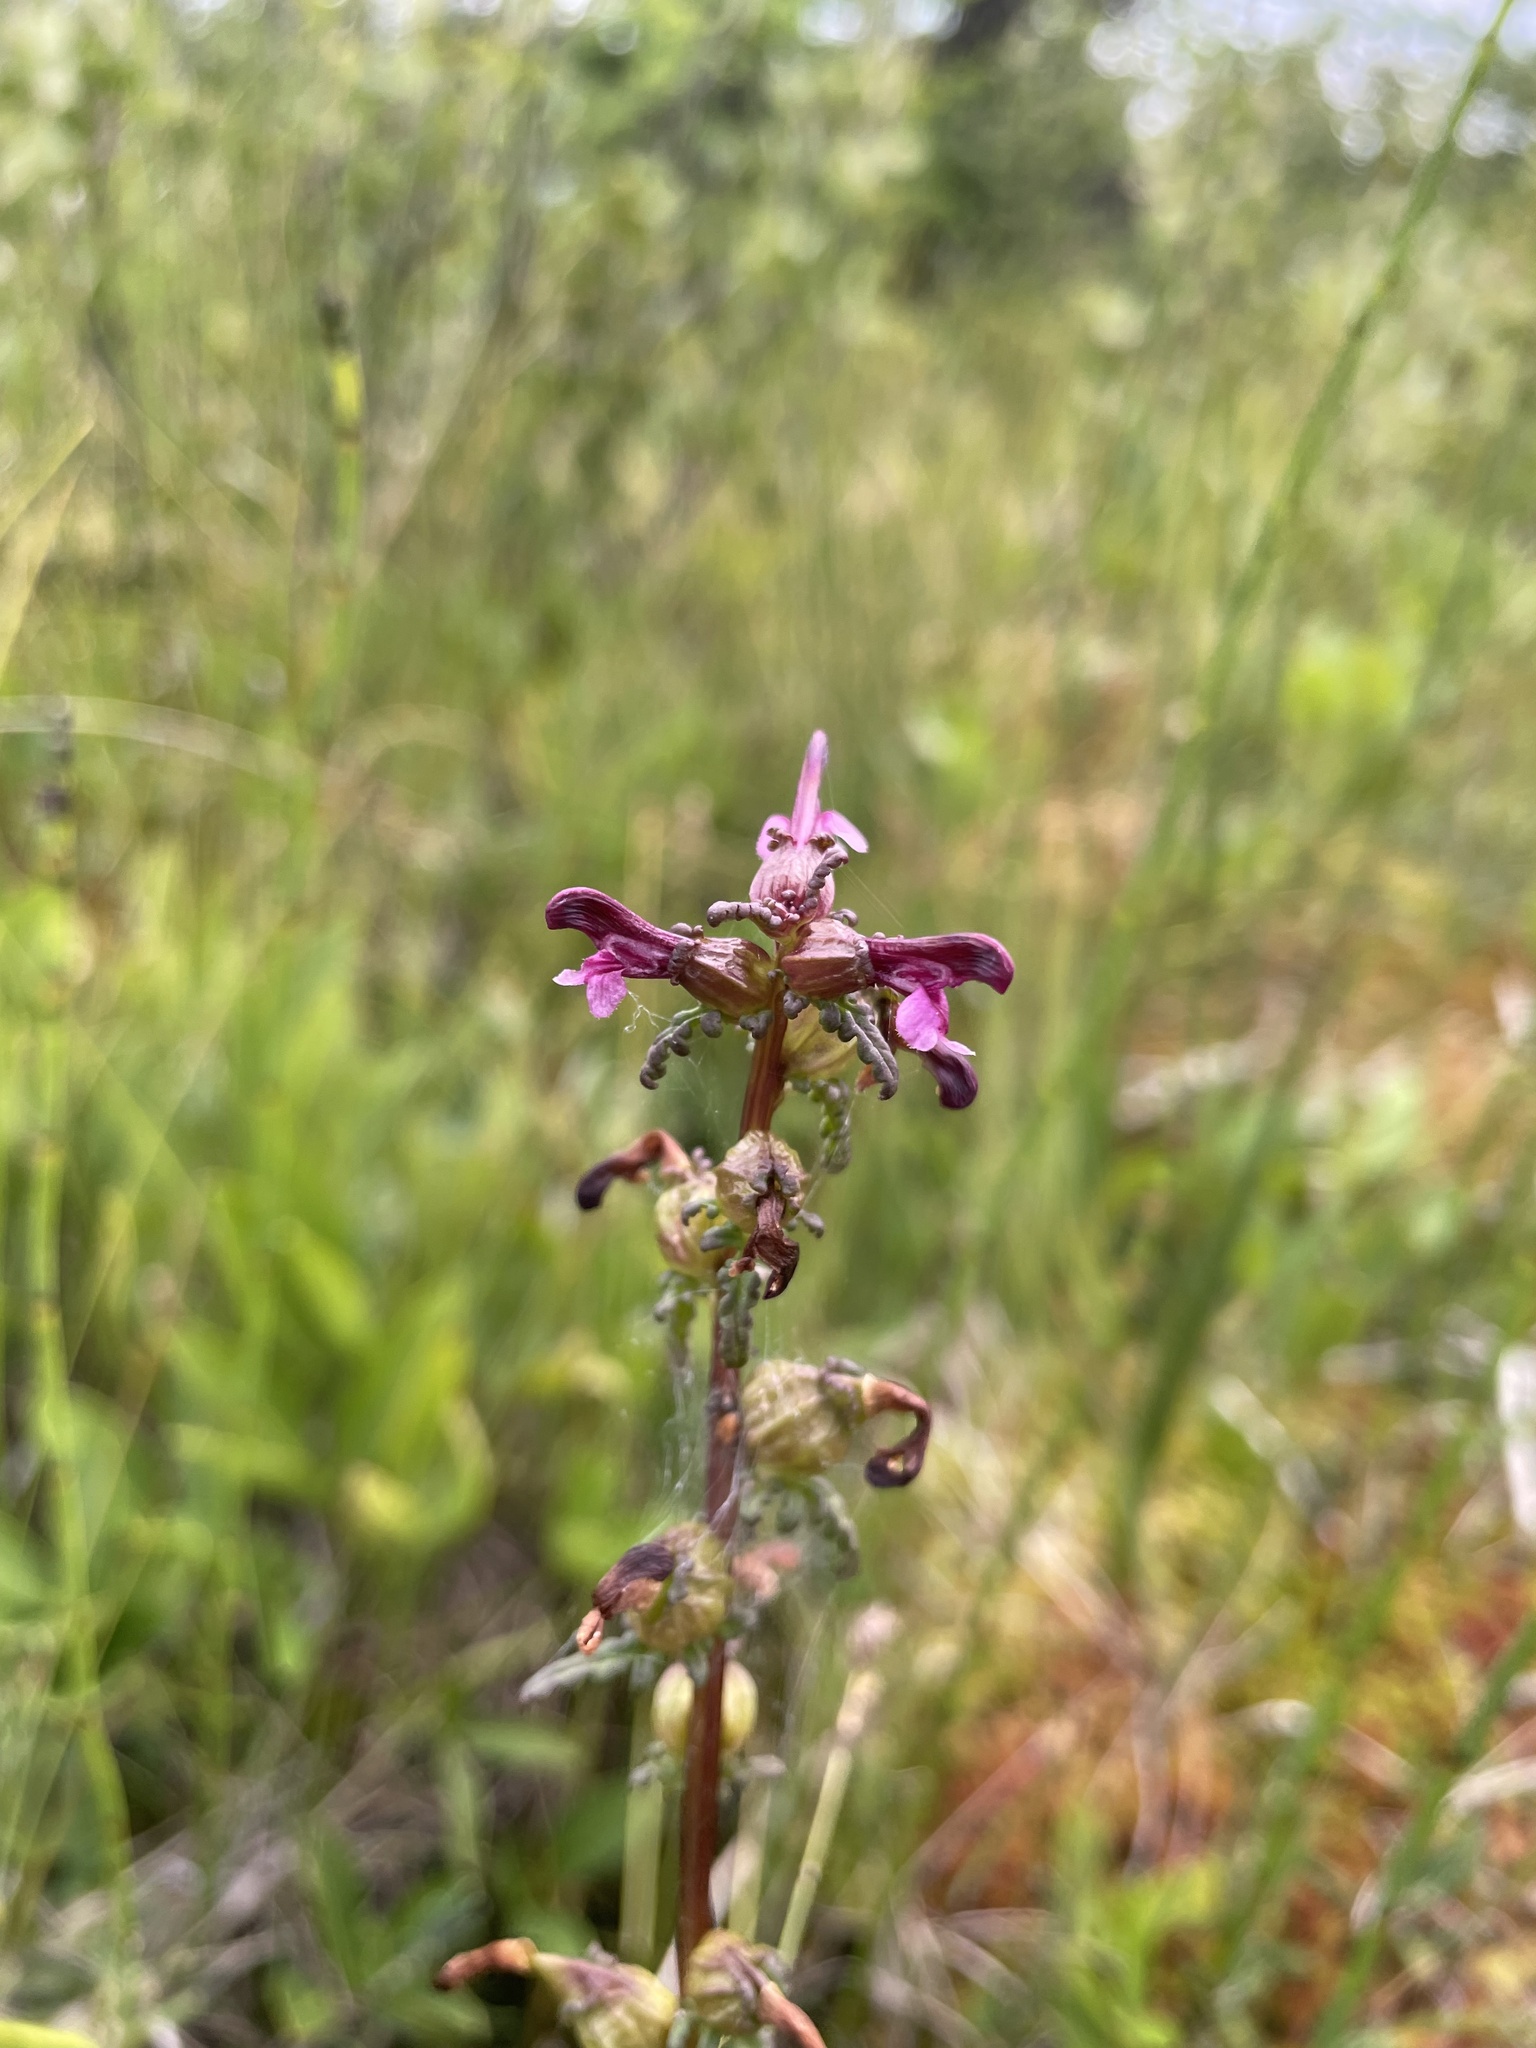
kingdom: Plantae
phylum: Tracheophyta
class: Magnoliopsida
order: Lamiales
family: Orobanchaceae
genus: Pedicularis
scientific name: Pedicularis parviflora
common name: Muskeg lousewort
